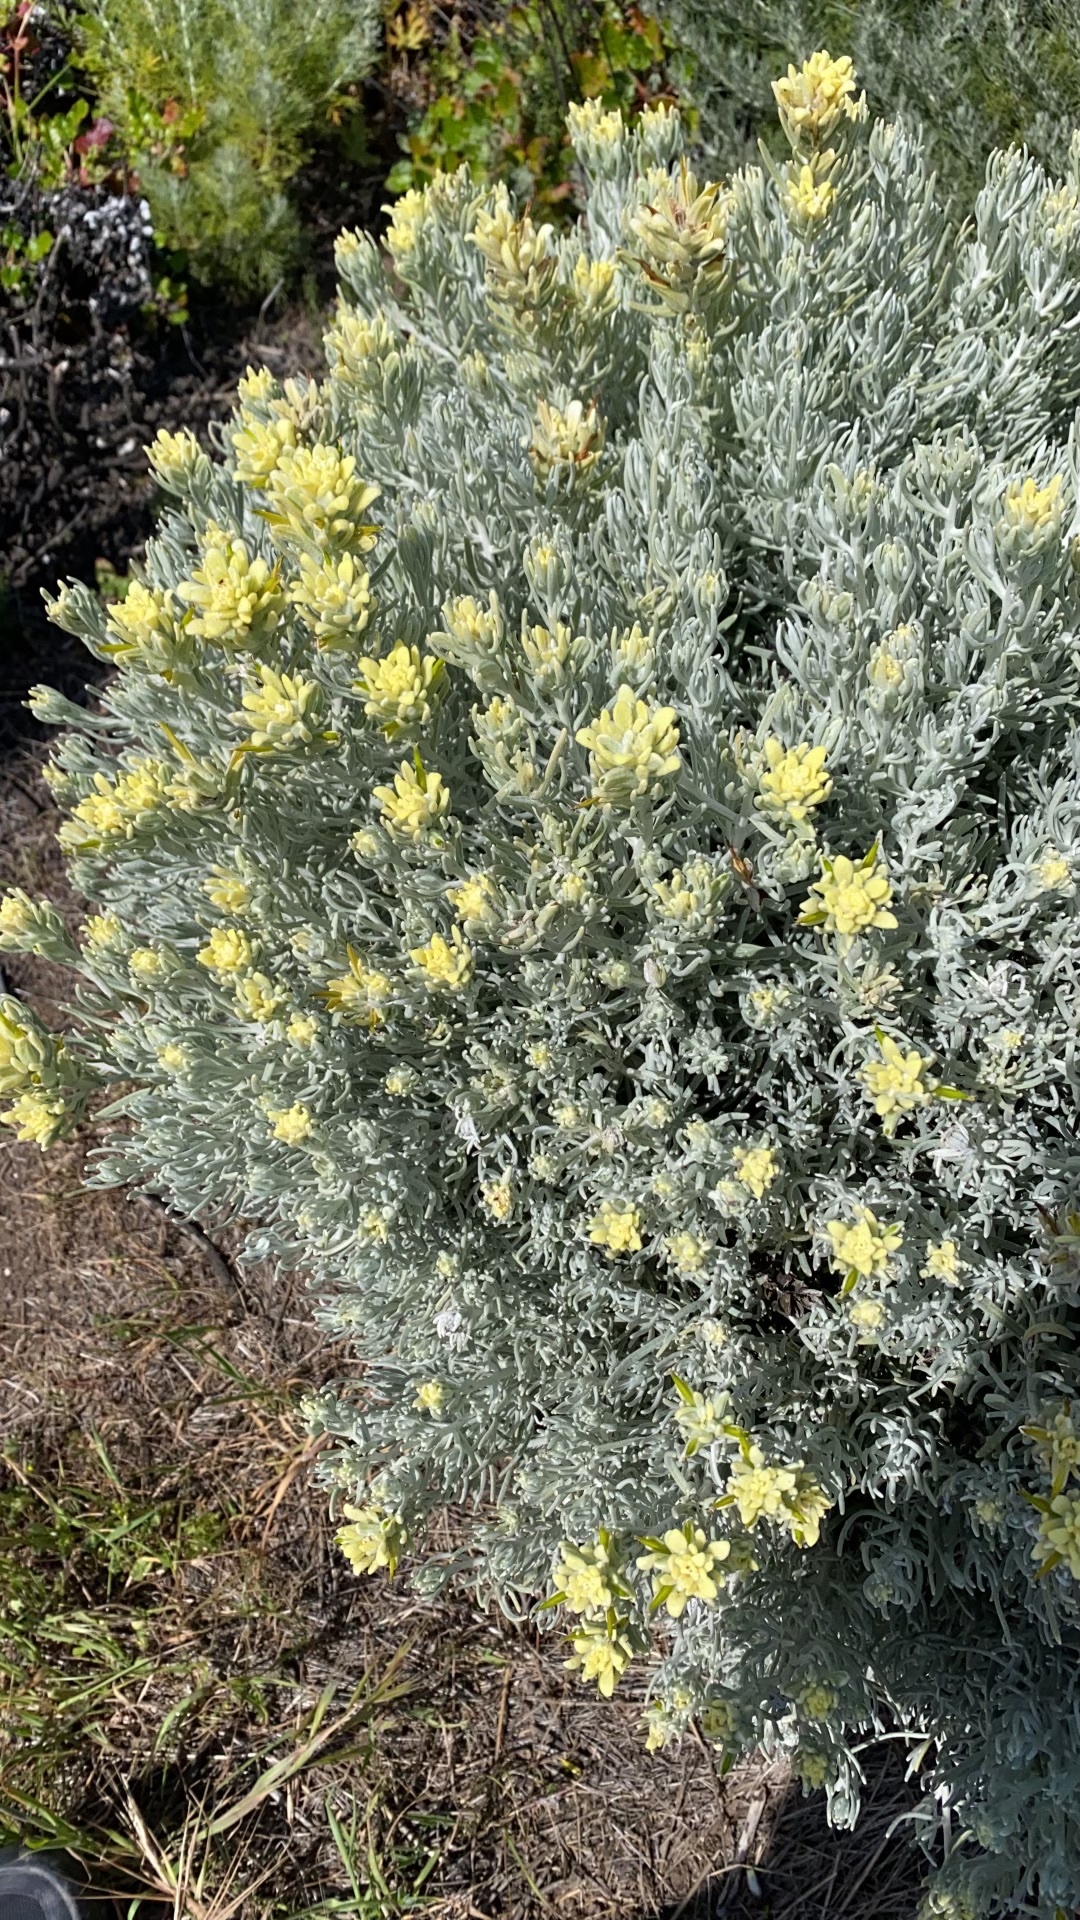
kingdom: Plantae
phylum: Tracheophyta
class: Magnoliopsida
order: Lamiales
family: Orobanchaceae
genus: Castilleja
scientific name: Castilleja hololeuca
